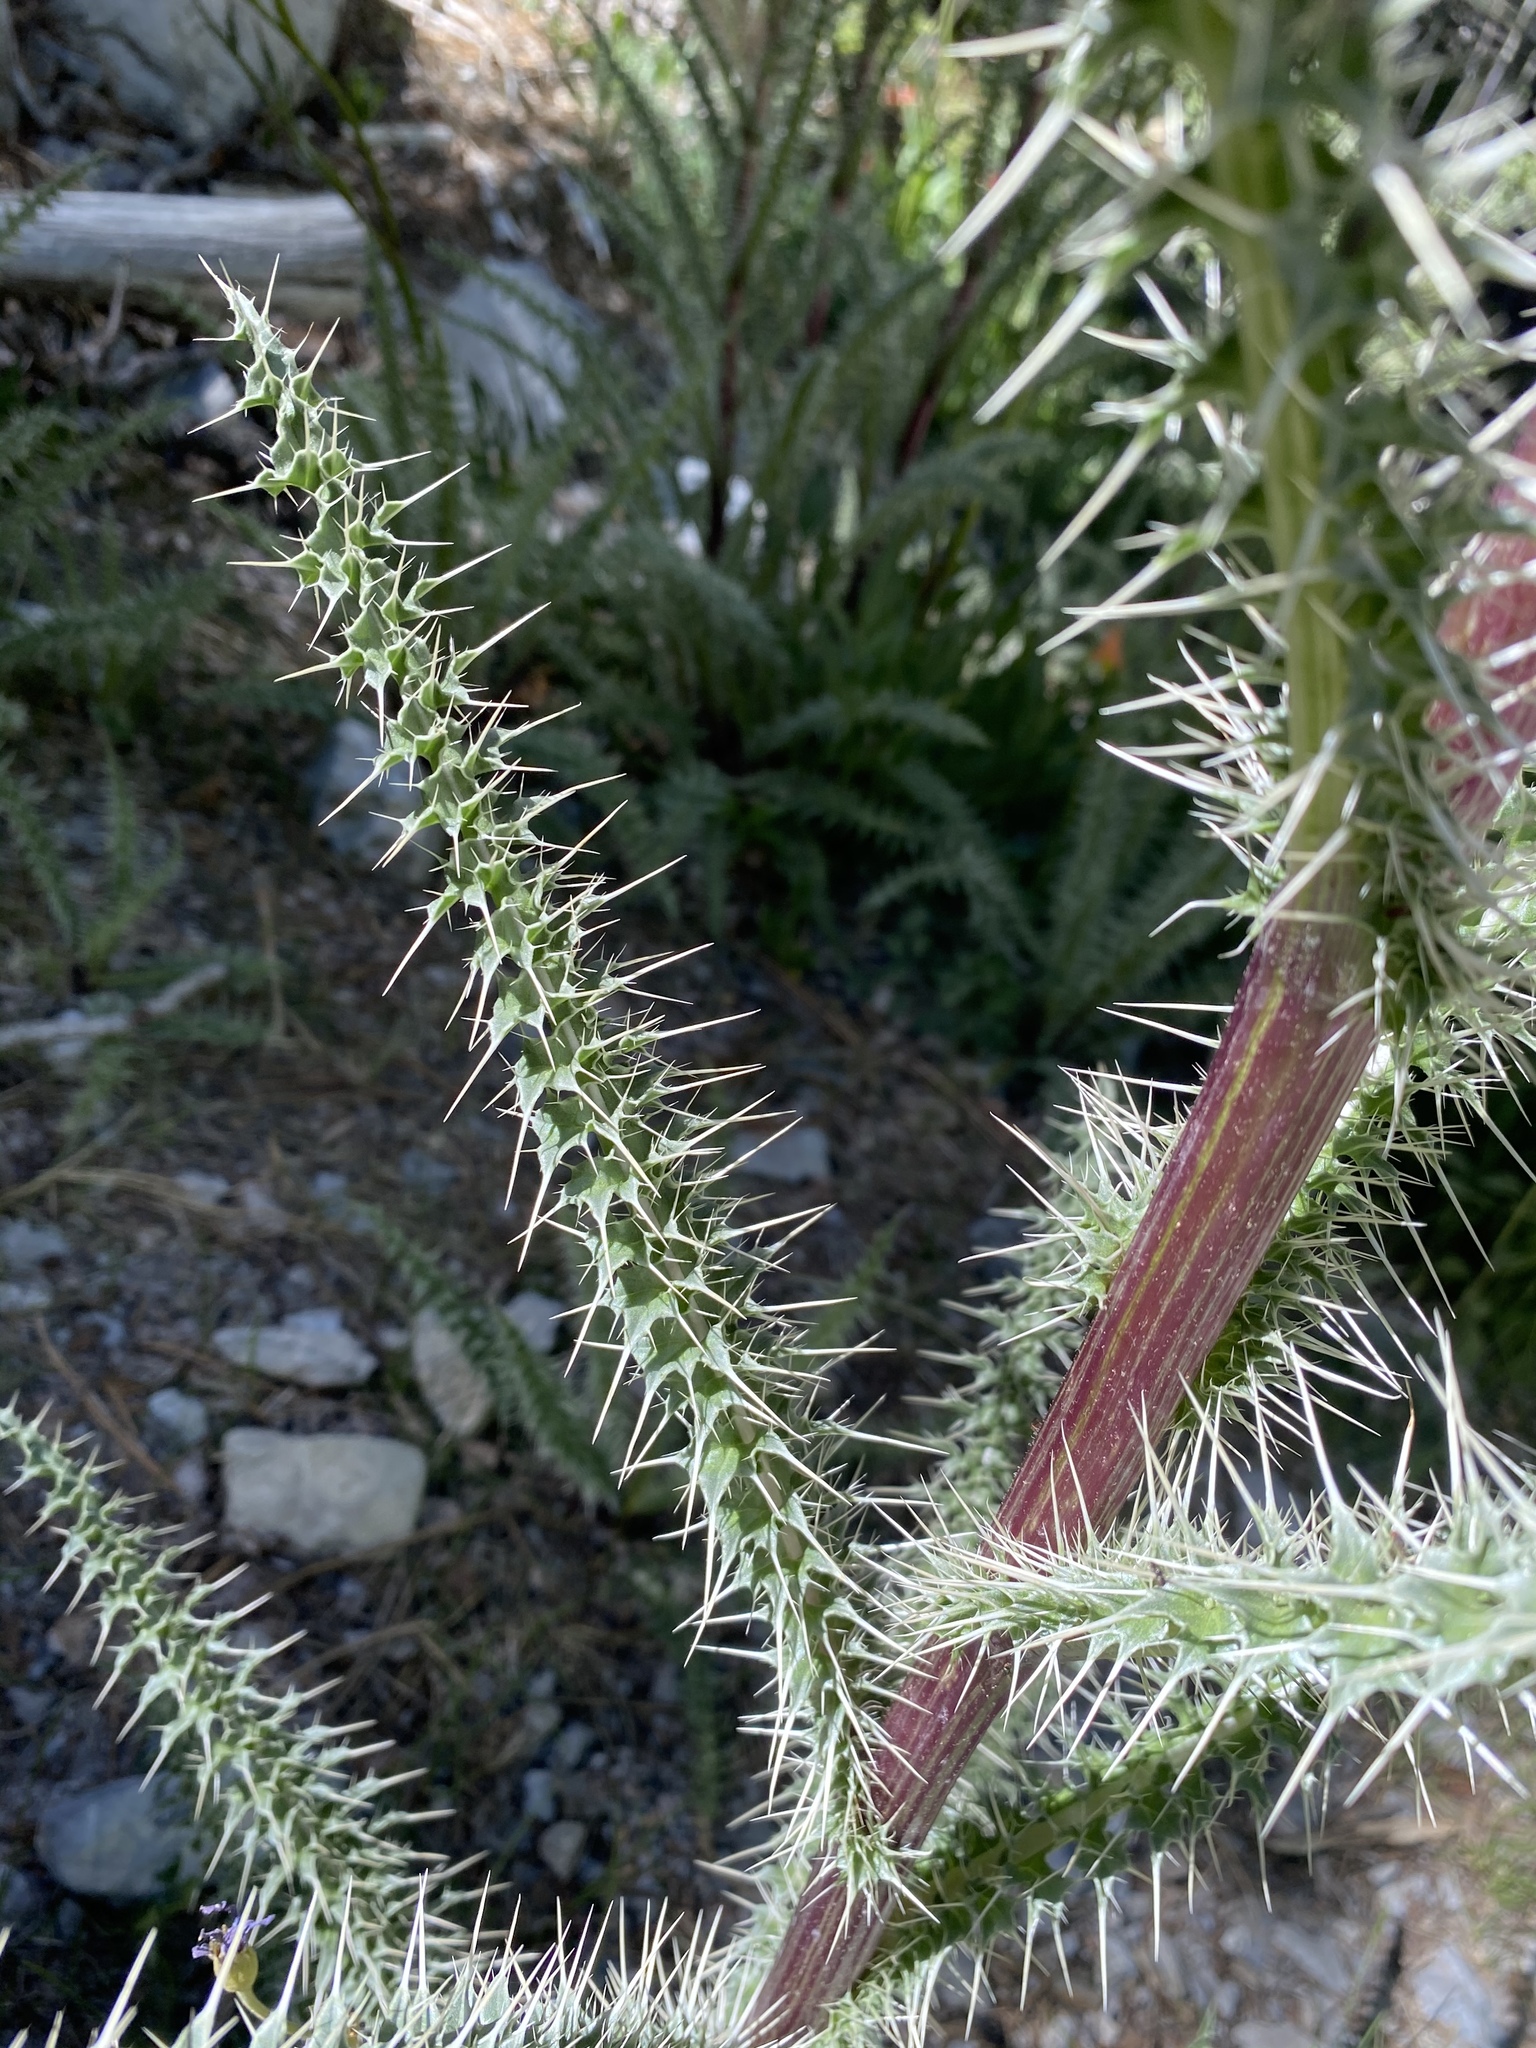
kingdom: Plantae
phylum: Tracheophyta
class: Magnoliopsida
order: Asterales
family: Asteraceae
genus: Cirsium
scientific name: Cirsium eatonii
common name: Eaton's thistle
